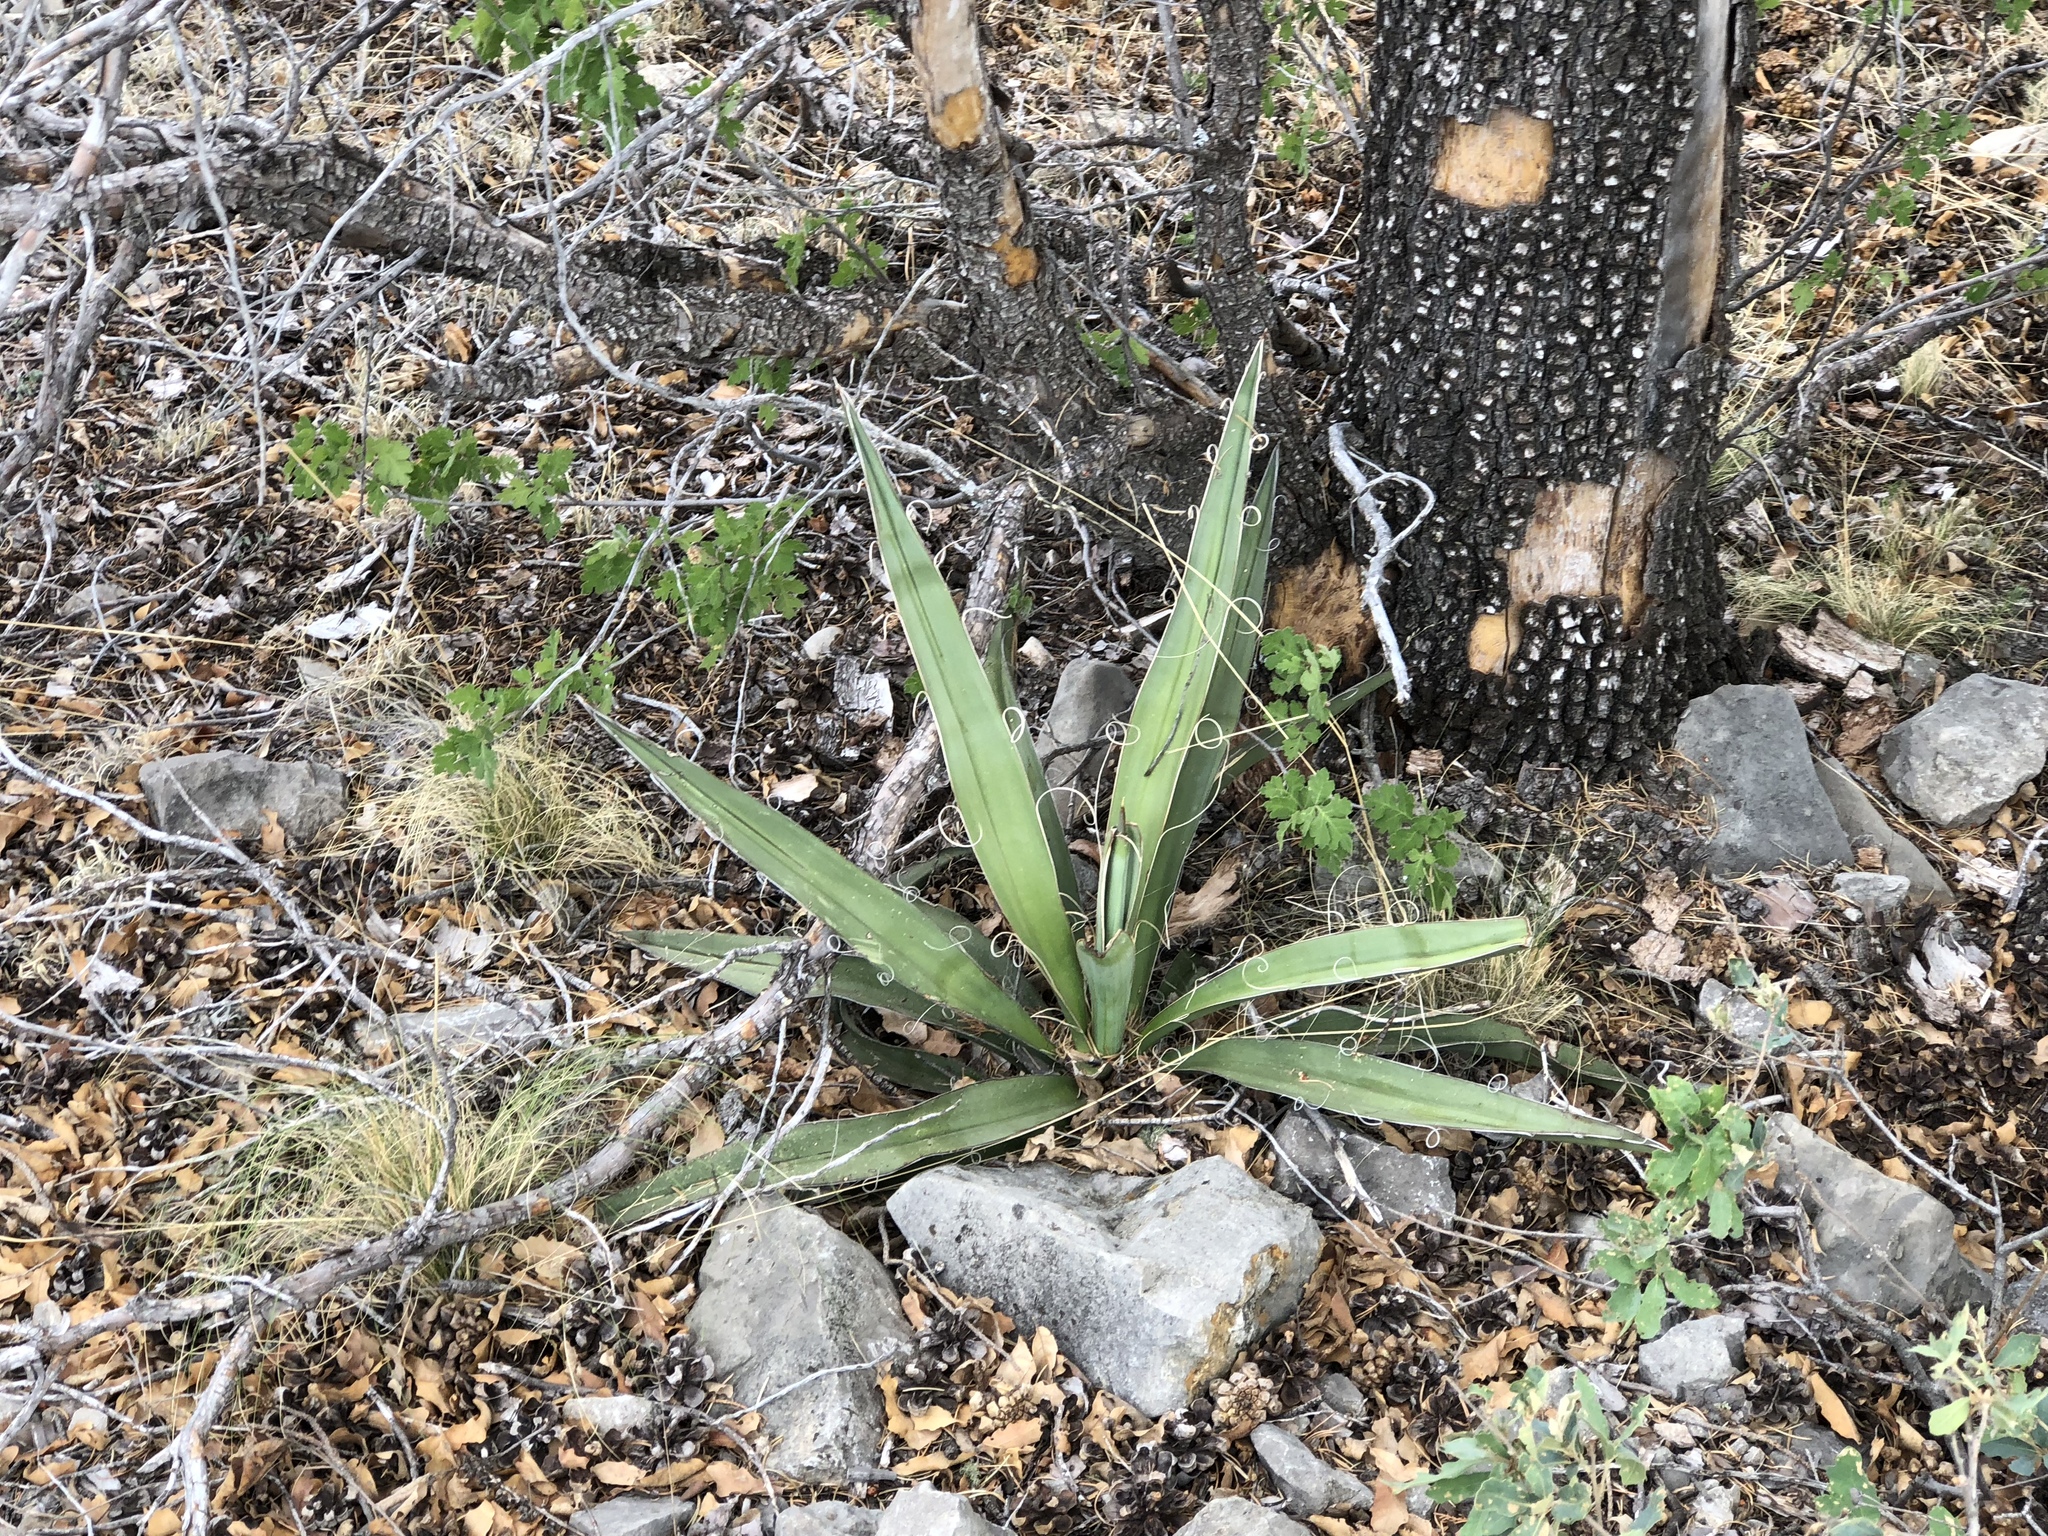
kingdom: Plantae
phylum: Tracheophyta
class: Liliopsida
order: Asparagales
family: Asparagaceae
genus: Yucca
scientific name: Yucca baccata
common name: Banana yucca
